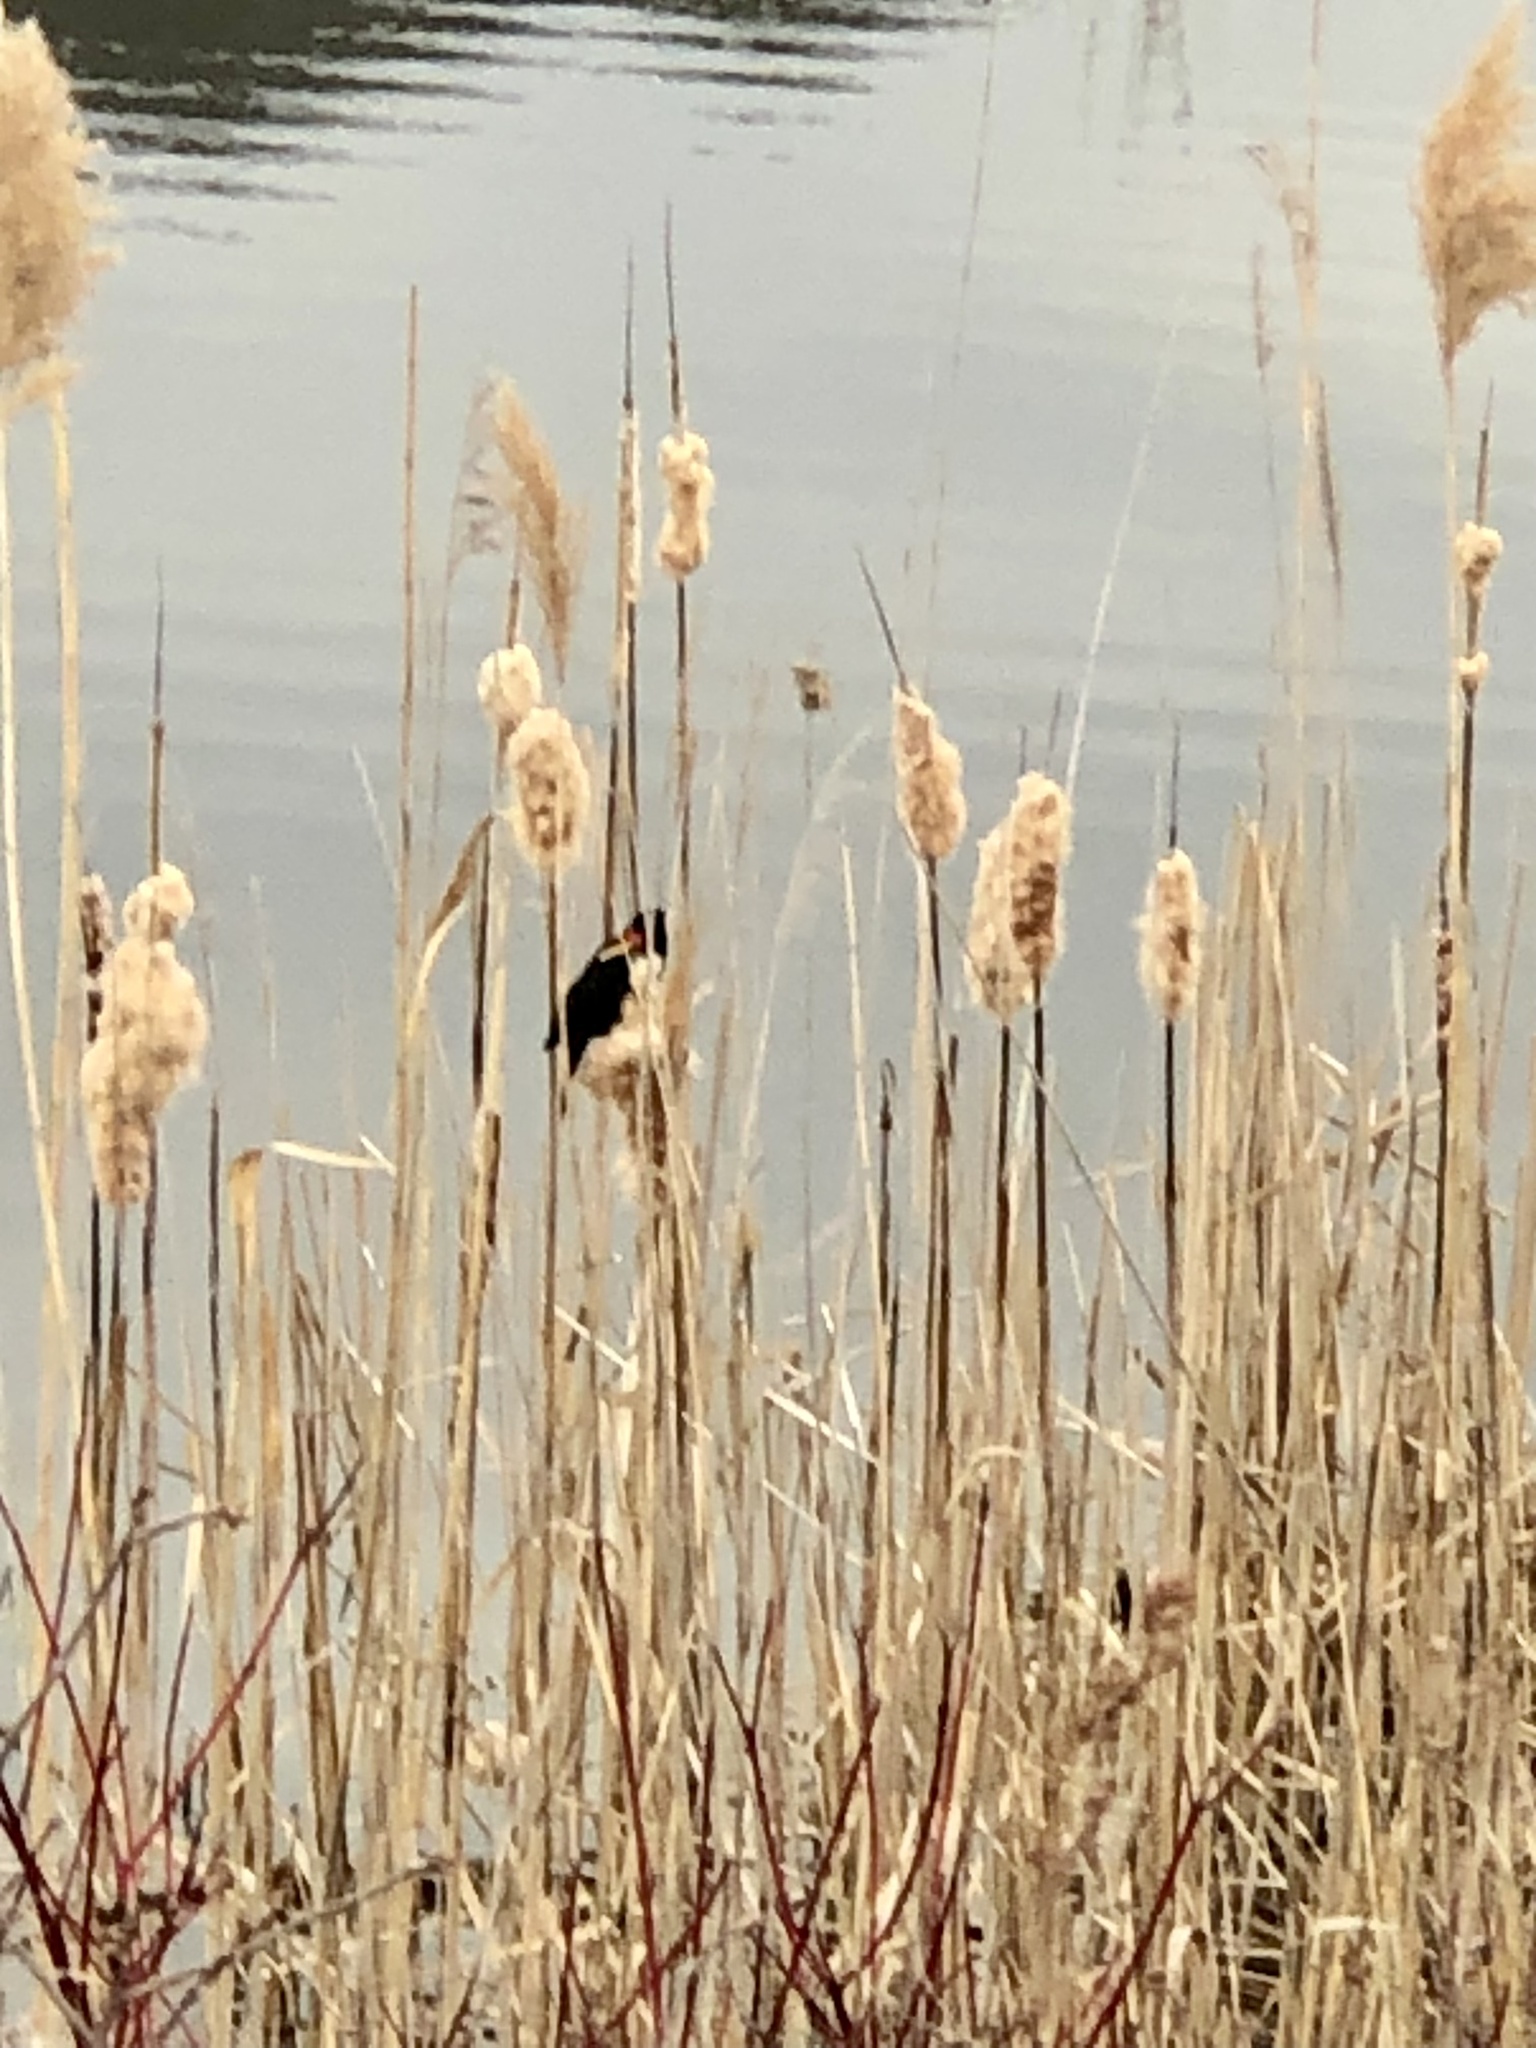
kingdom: Animalia
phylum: Chordata
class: Aves
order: Passeriformes
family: Icteridae
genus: Agelaius
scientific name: Agelaius phoeniceus
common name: Red-winged blackbird
